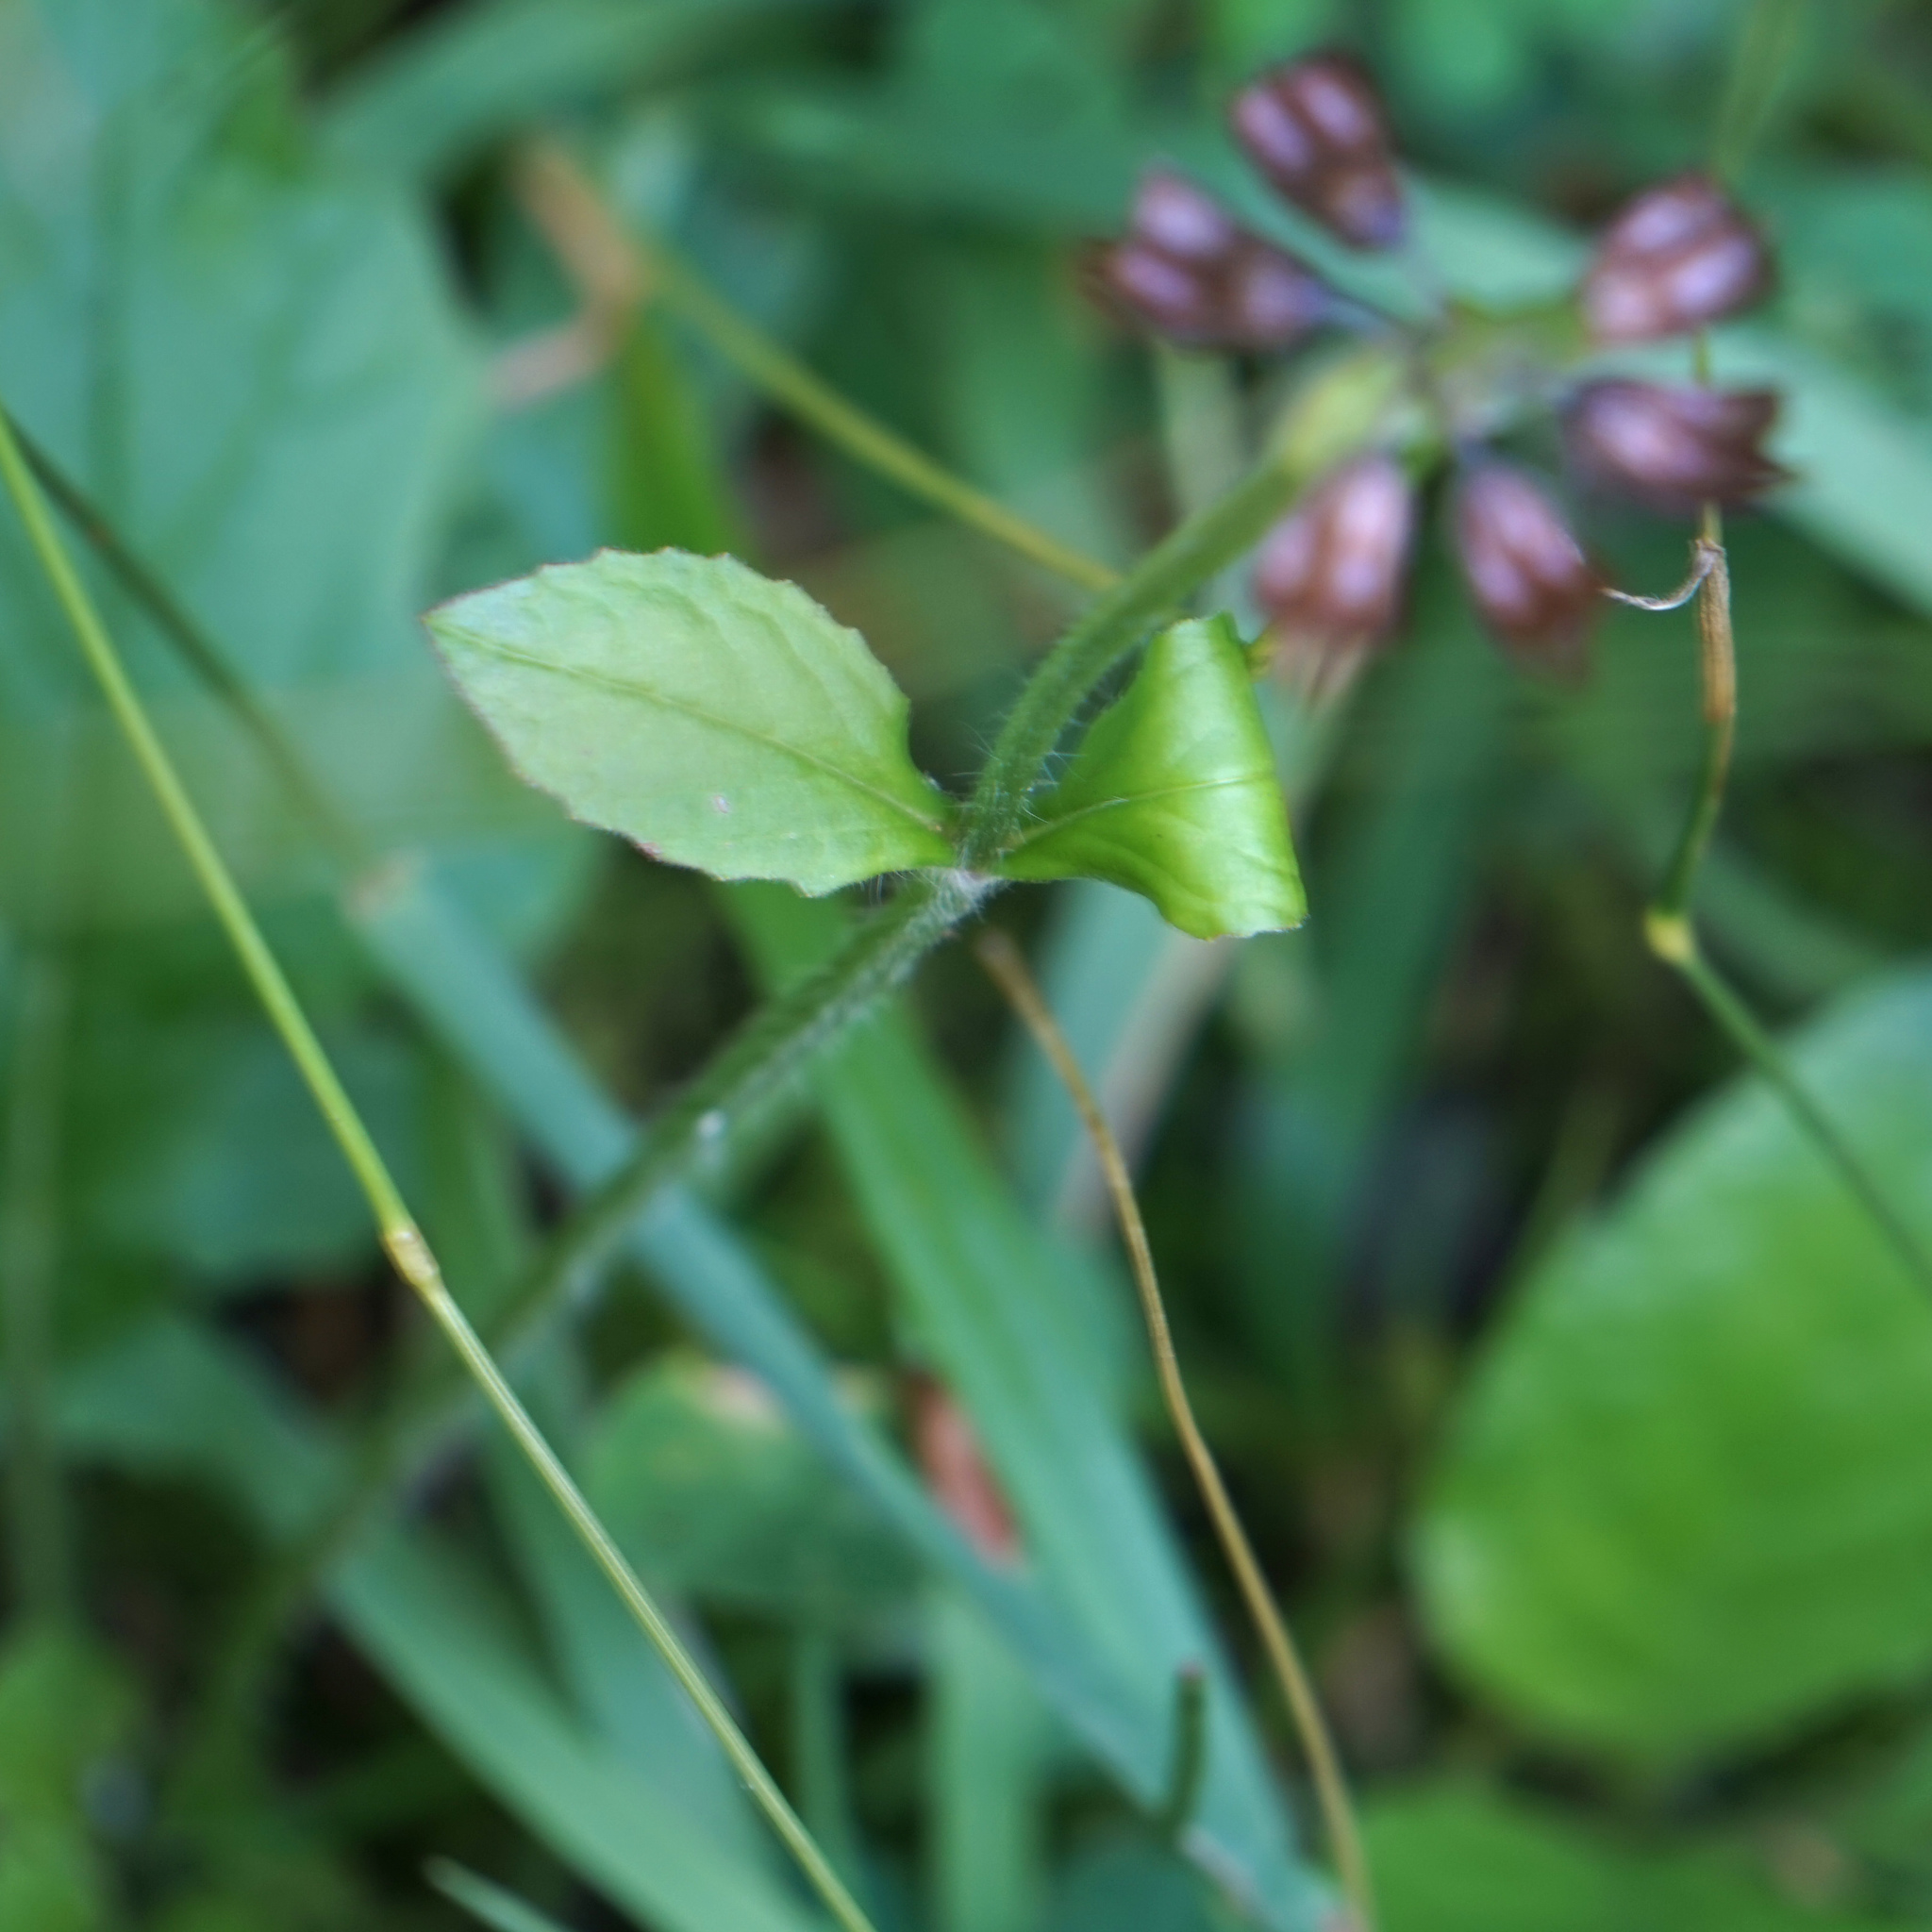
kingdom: Plantae
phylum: Tracheophyta
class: Magnoliopsida
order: Lamiales
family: Lamiaceae
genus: Salvia
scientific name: Salvia lyrata
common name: Cancerweed
